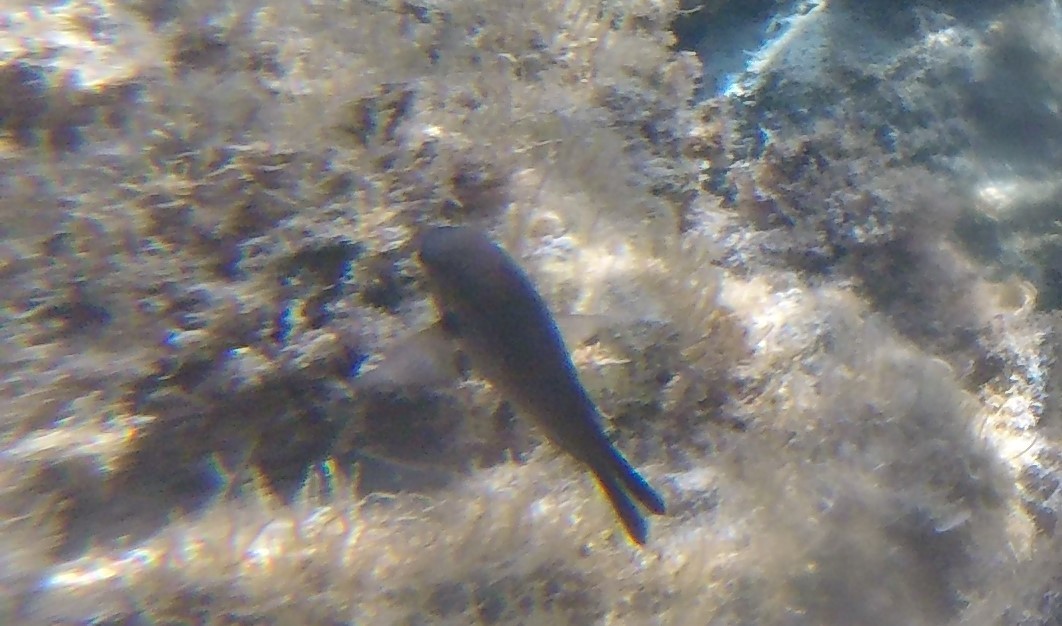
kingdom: Animalia
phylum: Chordata
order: Perciformes
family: Pomacentridae
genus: Chromis
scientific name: Chromis chromis
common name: Damselfish
